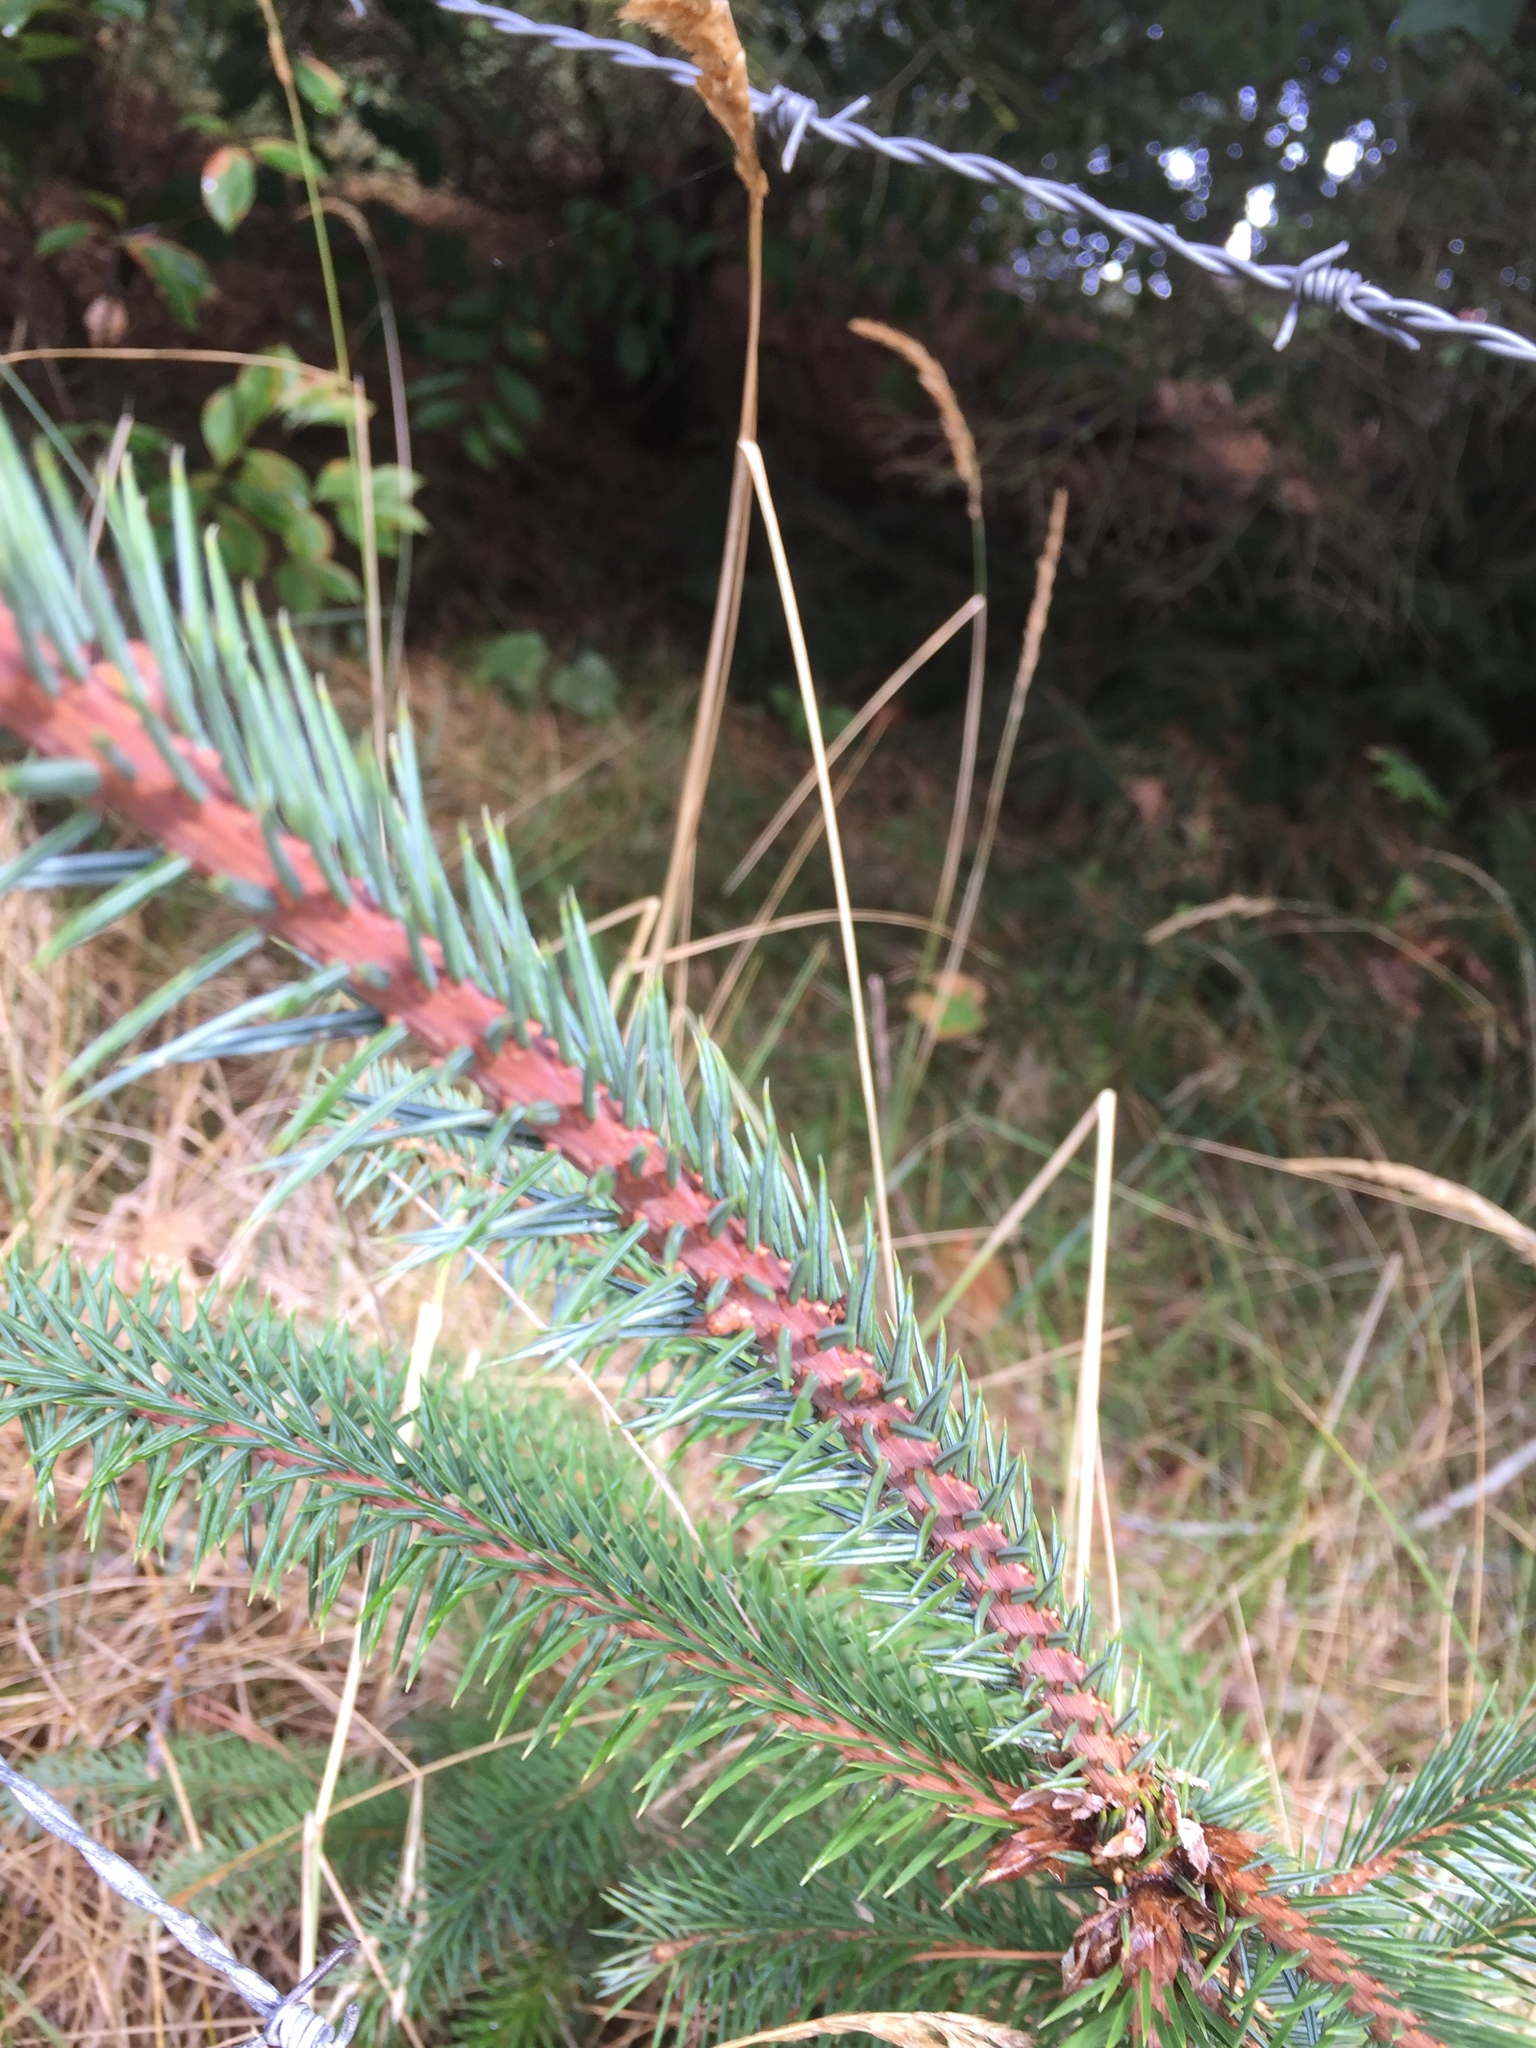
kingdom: Plantae
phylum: Tracheophyta
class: Pinopsida
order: Pinales
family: Pinaceae
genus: Picea
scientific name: Picea sitchensis
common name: Sitka spruce
